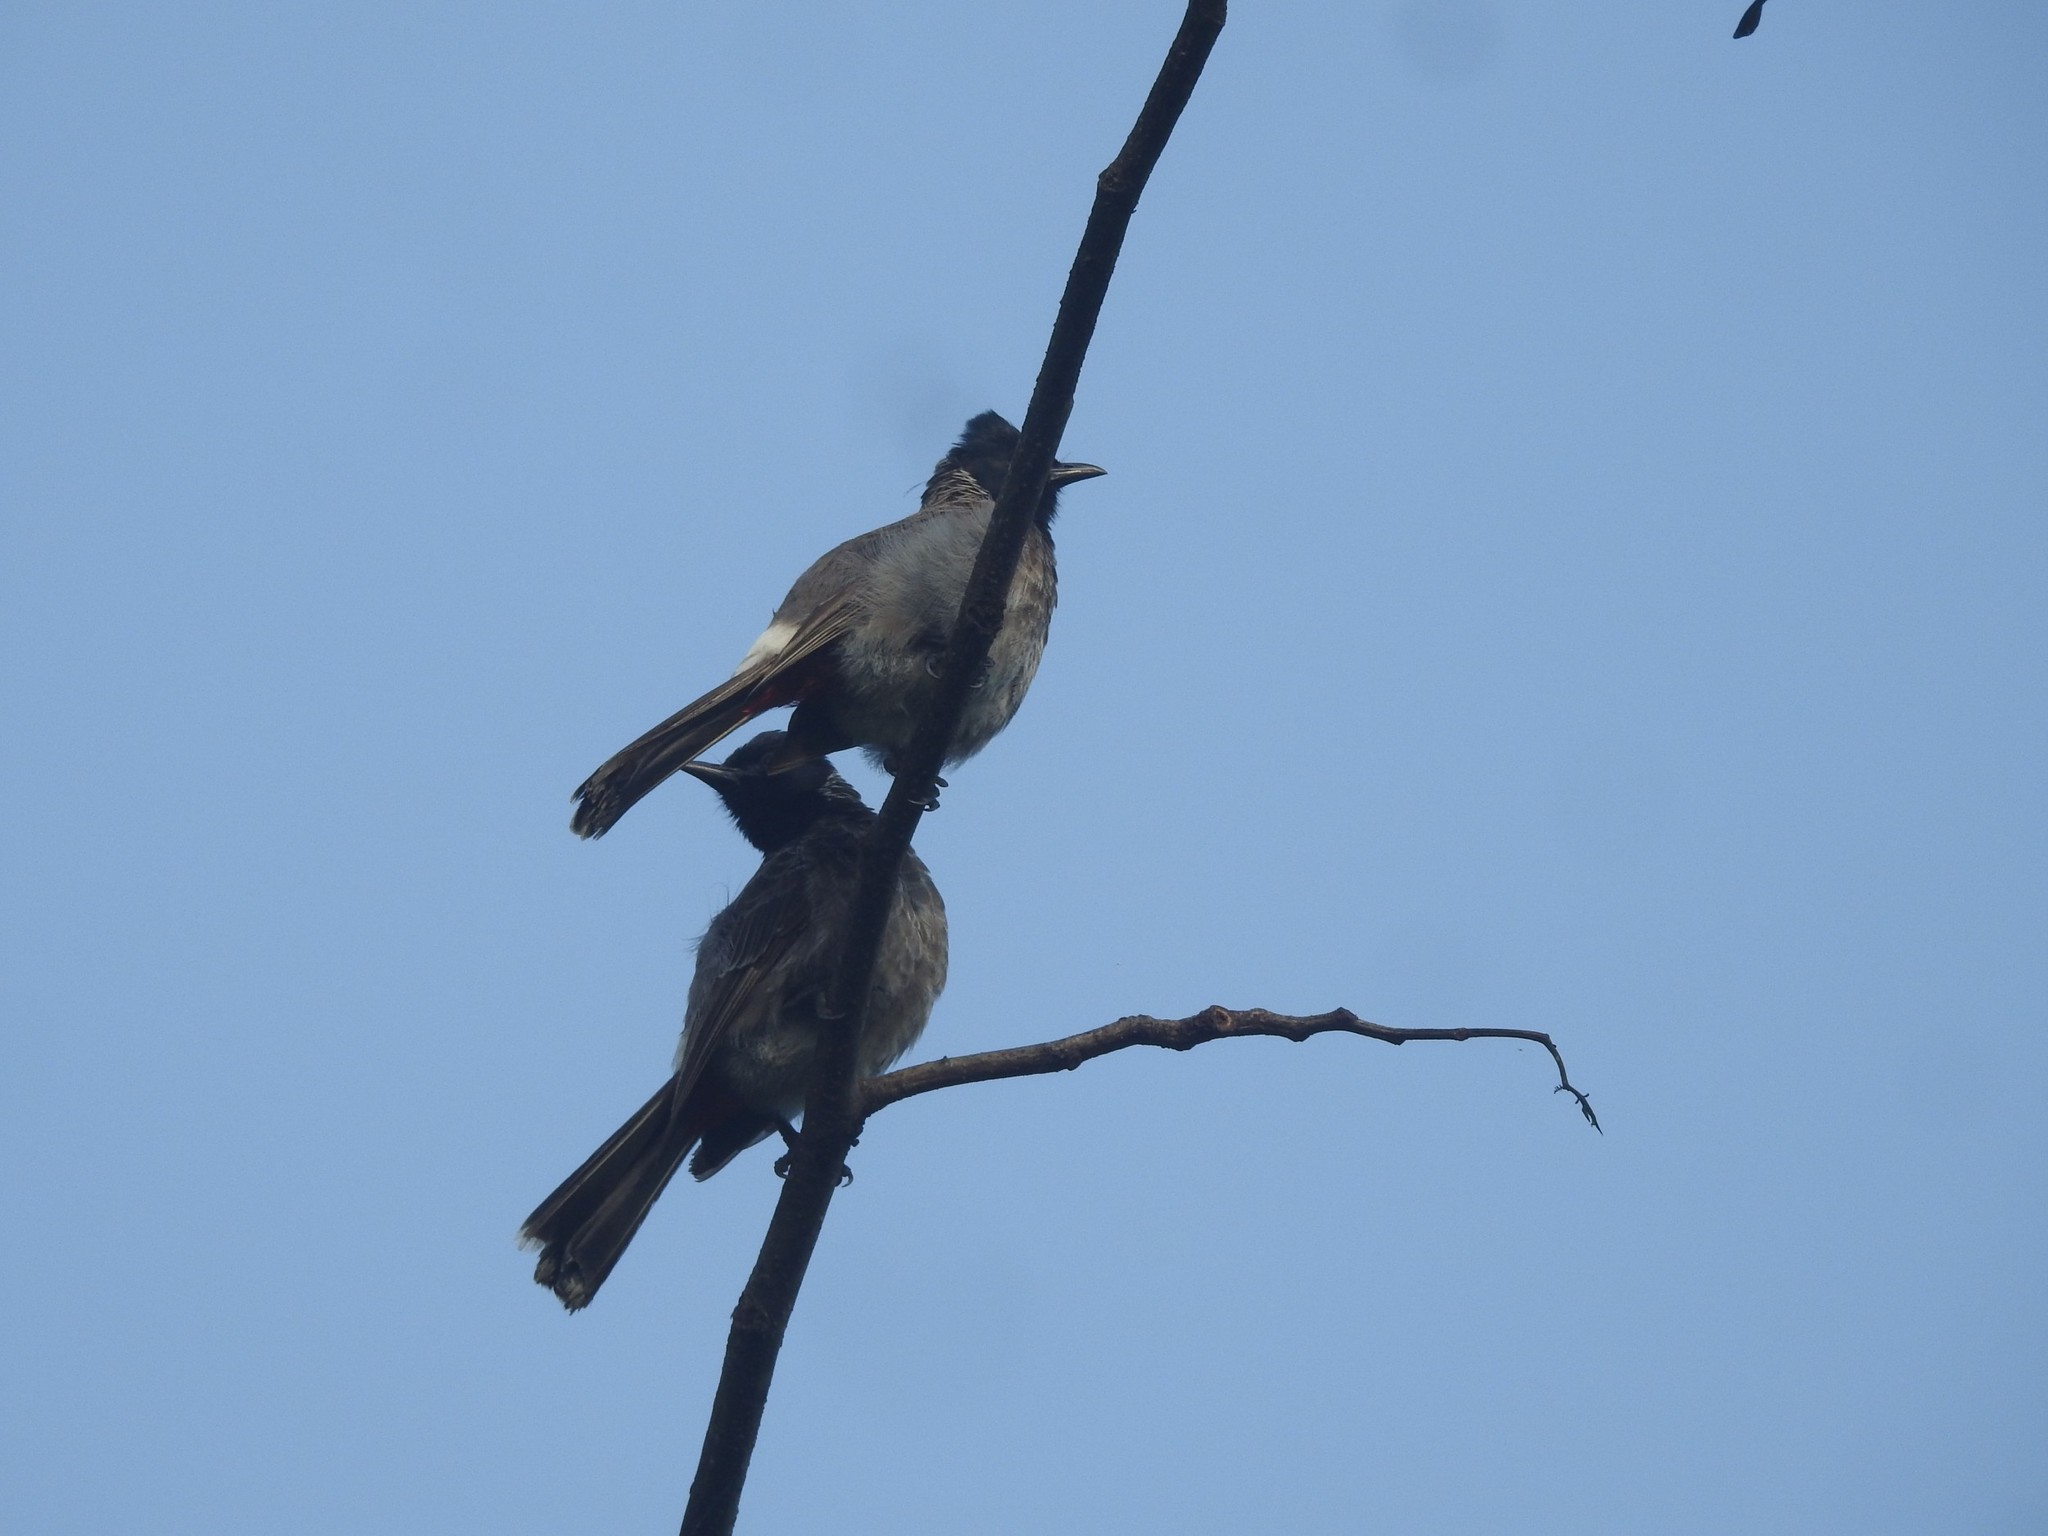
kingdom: Animalia
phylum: Chordata
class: Aves
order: Passeriformes
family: Pycnonotidae
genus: Pycnonotus
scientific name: Pycnonotus cafer
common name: Red-vented bulbul
